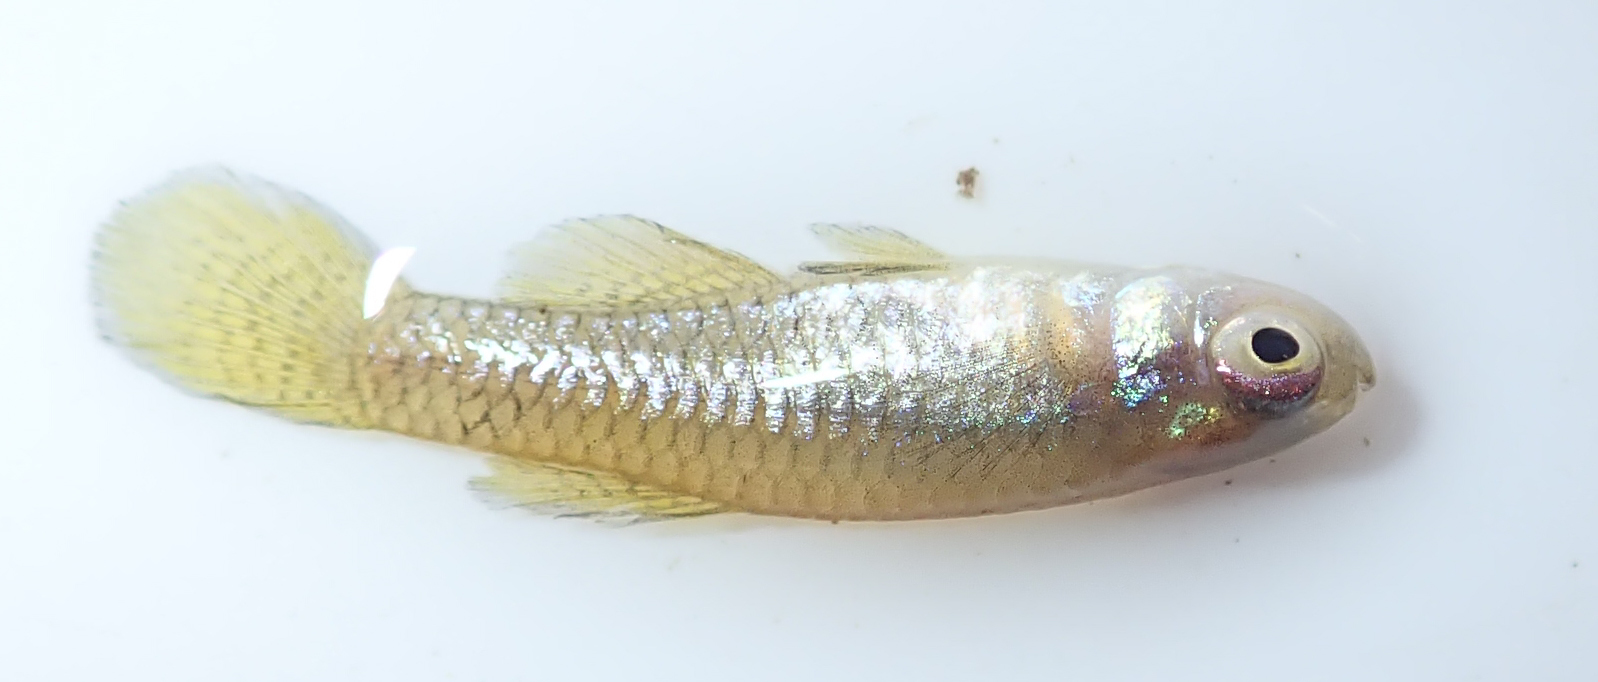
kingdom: Animalia
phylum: Chordata
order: Cyprinodontiformes
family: Poeciliidae
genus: Micropanchax
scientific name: Micropanchax hutereaui
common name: Meshscaled topminnow
